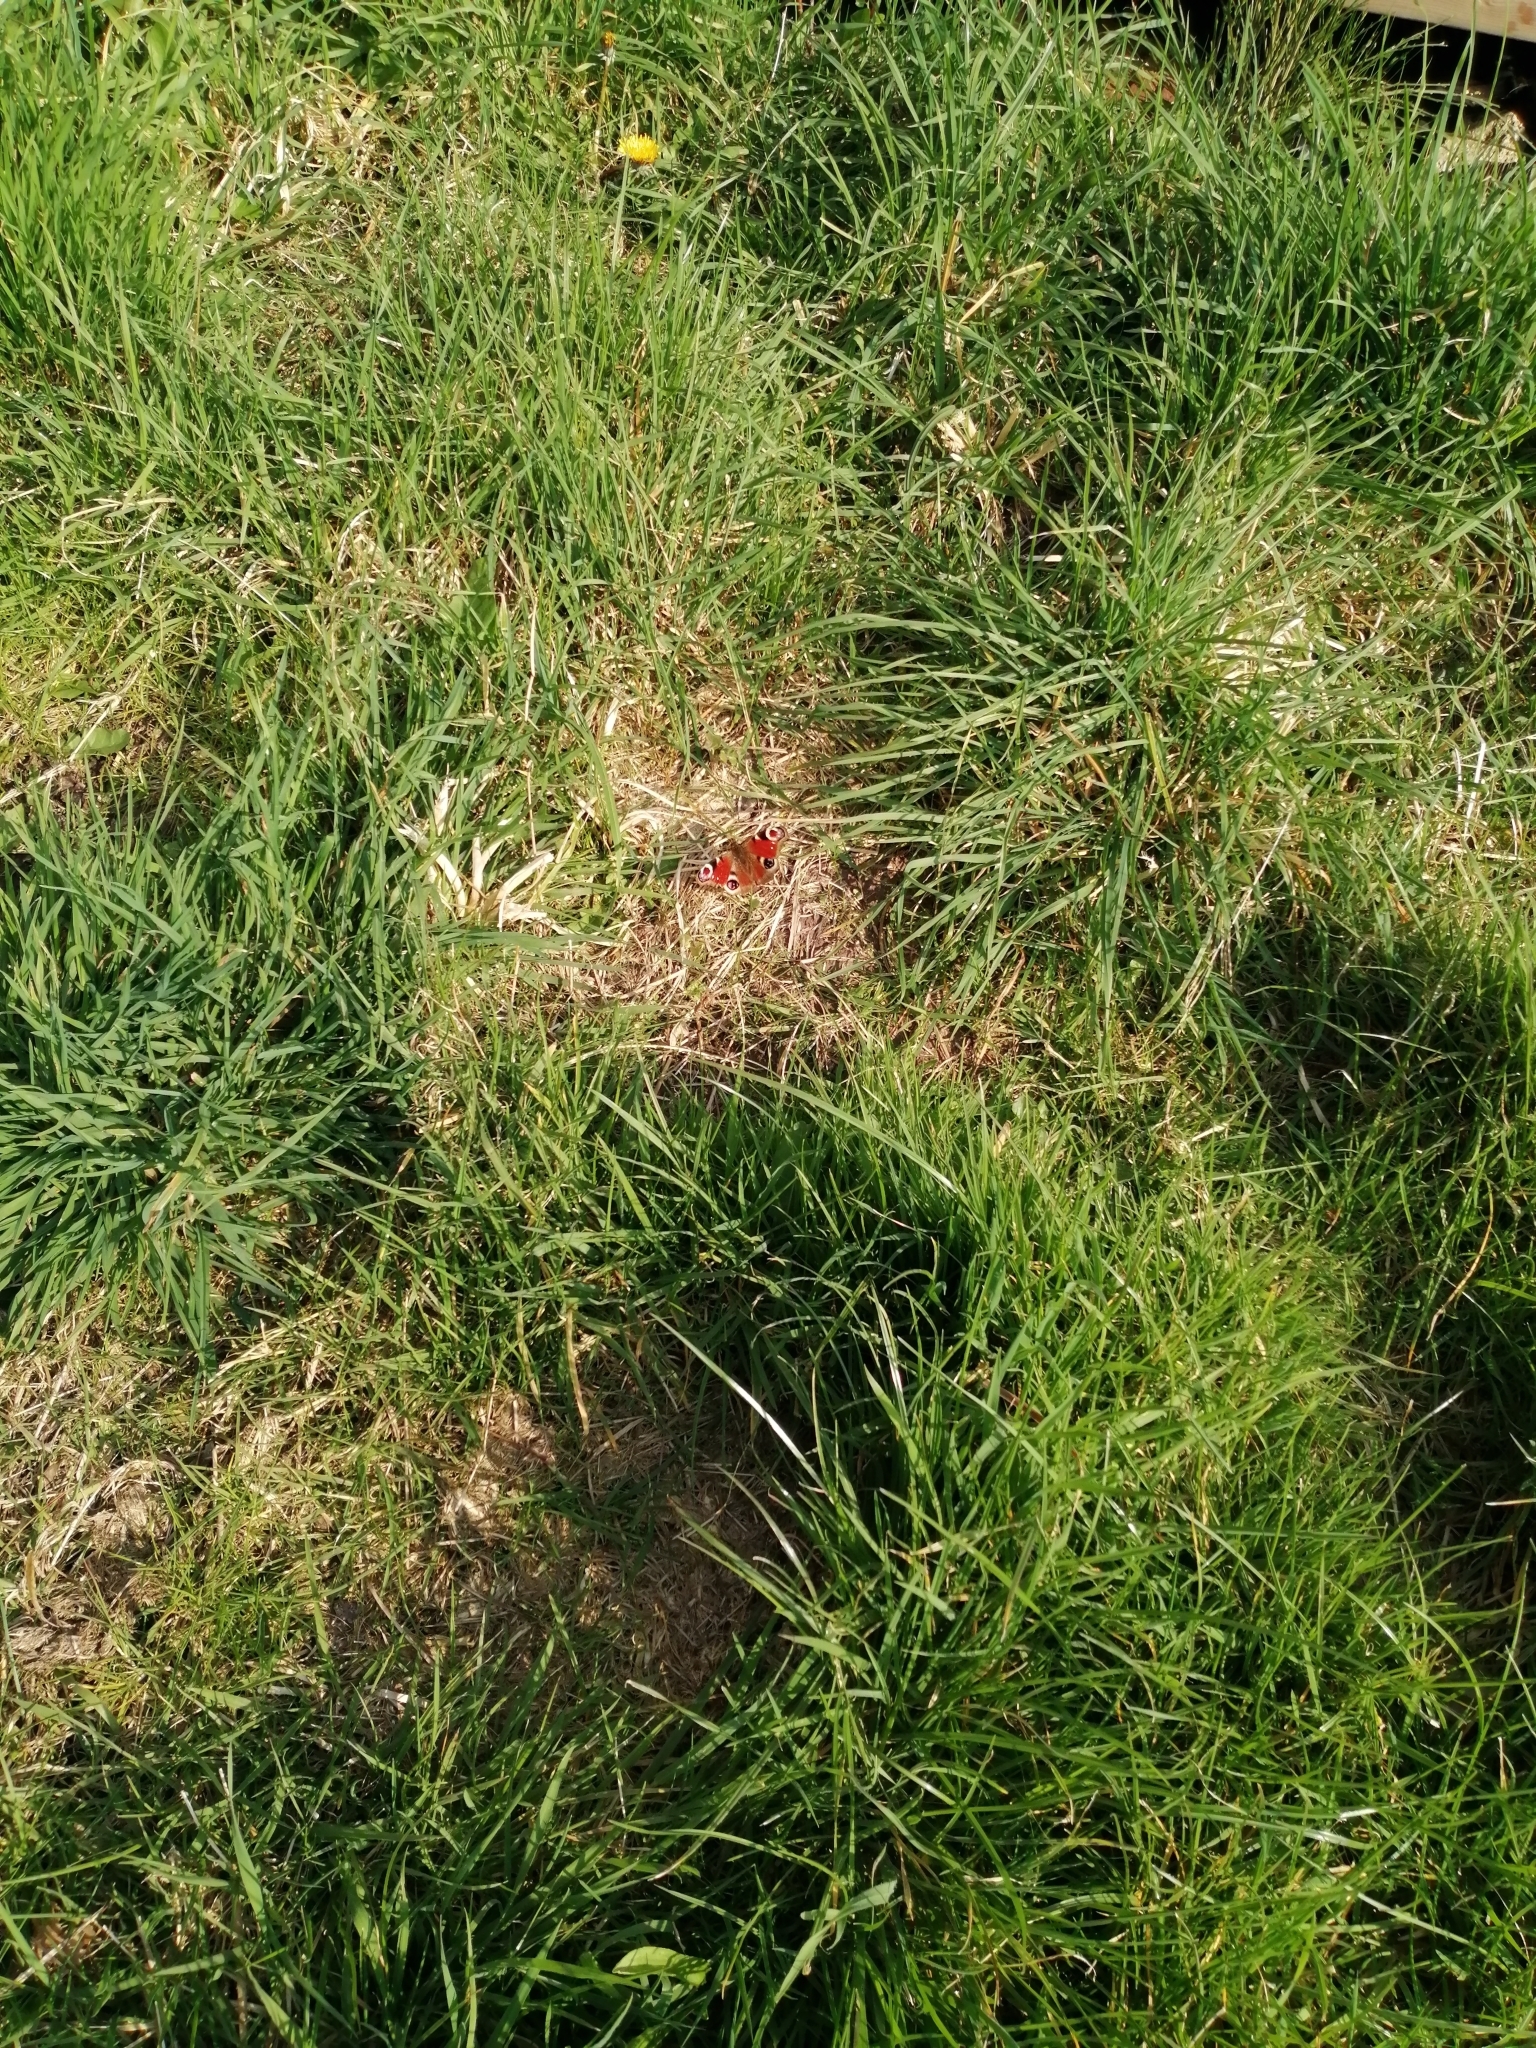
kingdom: Animalia
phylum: Arthropoda
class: Insecta
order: Lepidoptera
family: Nymphalidae
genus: Aglais
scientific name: Aglais io
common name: Peacock
